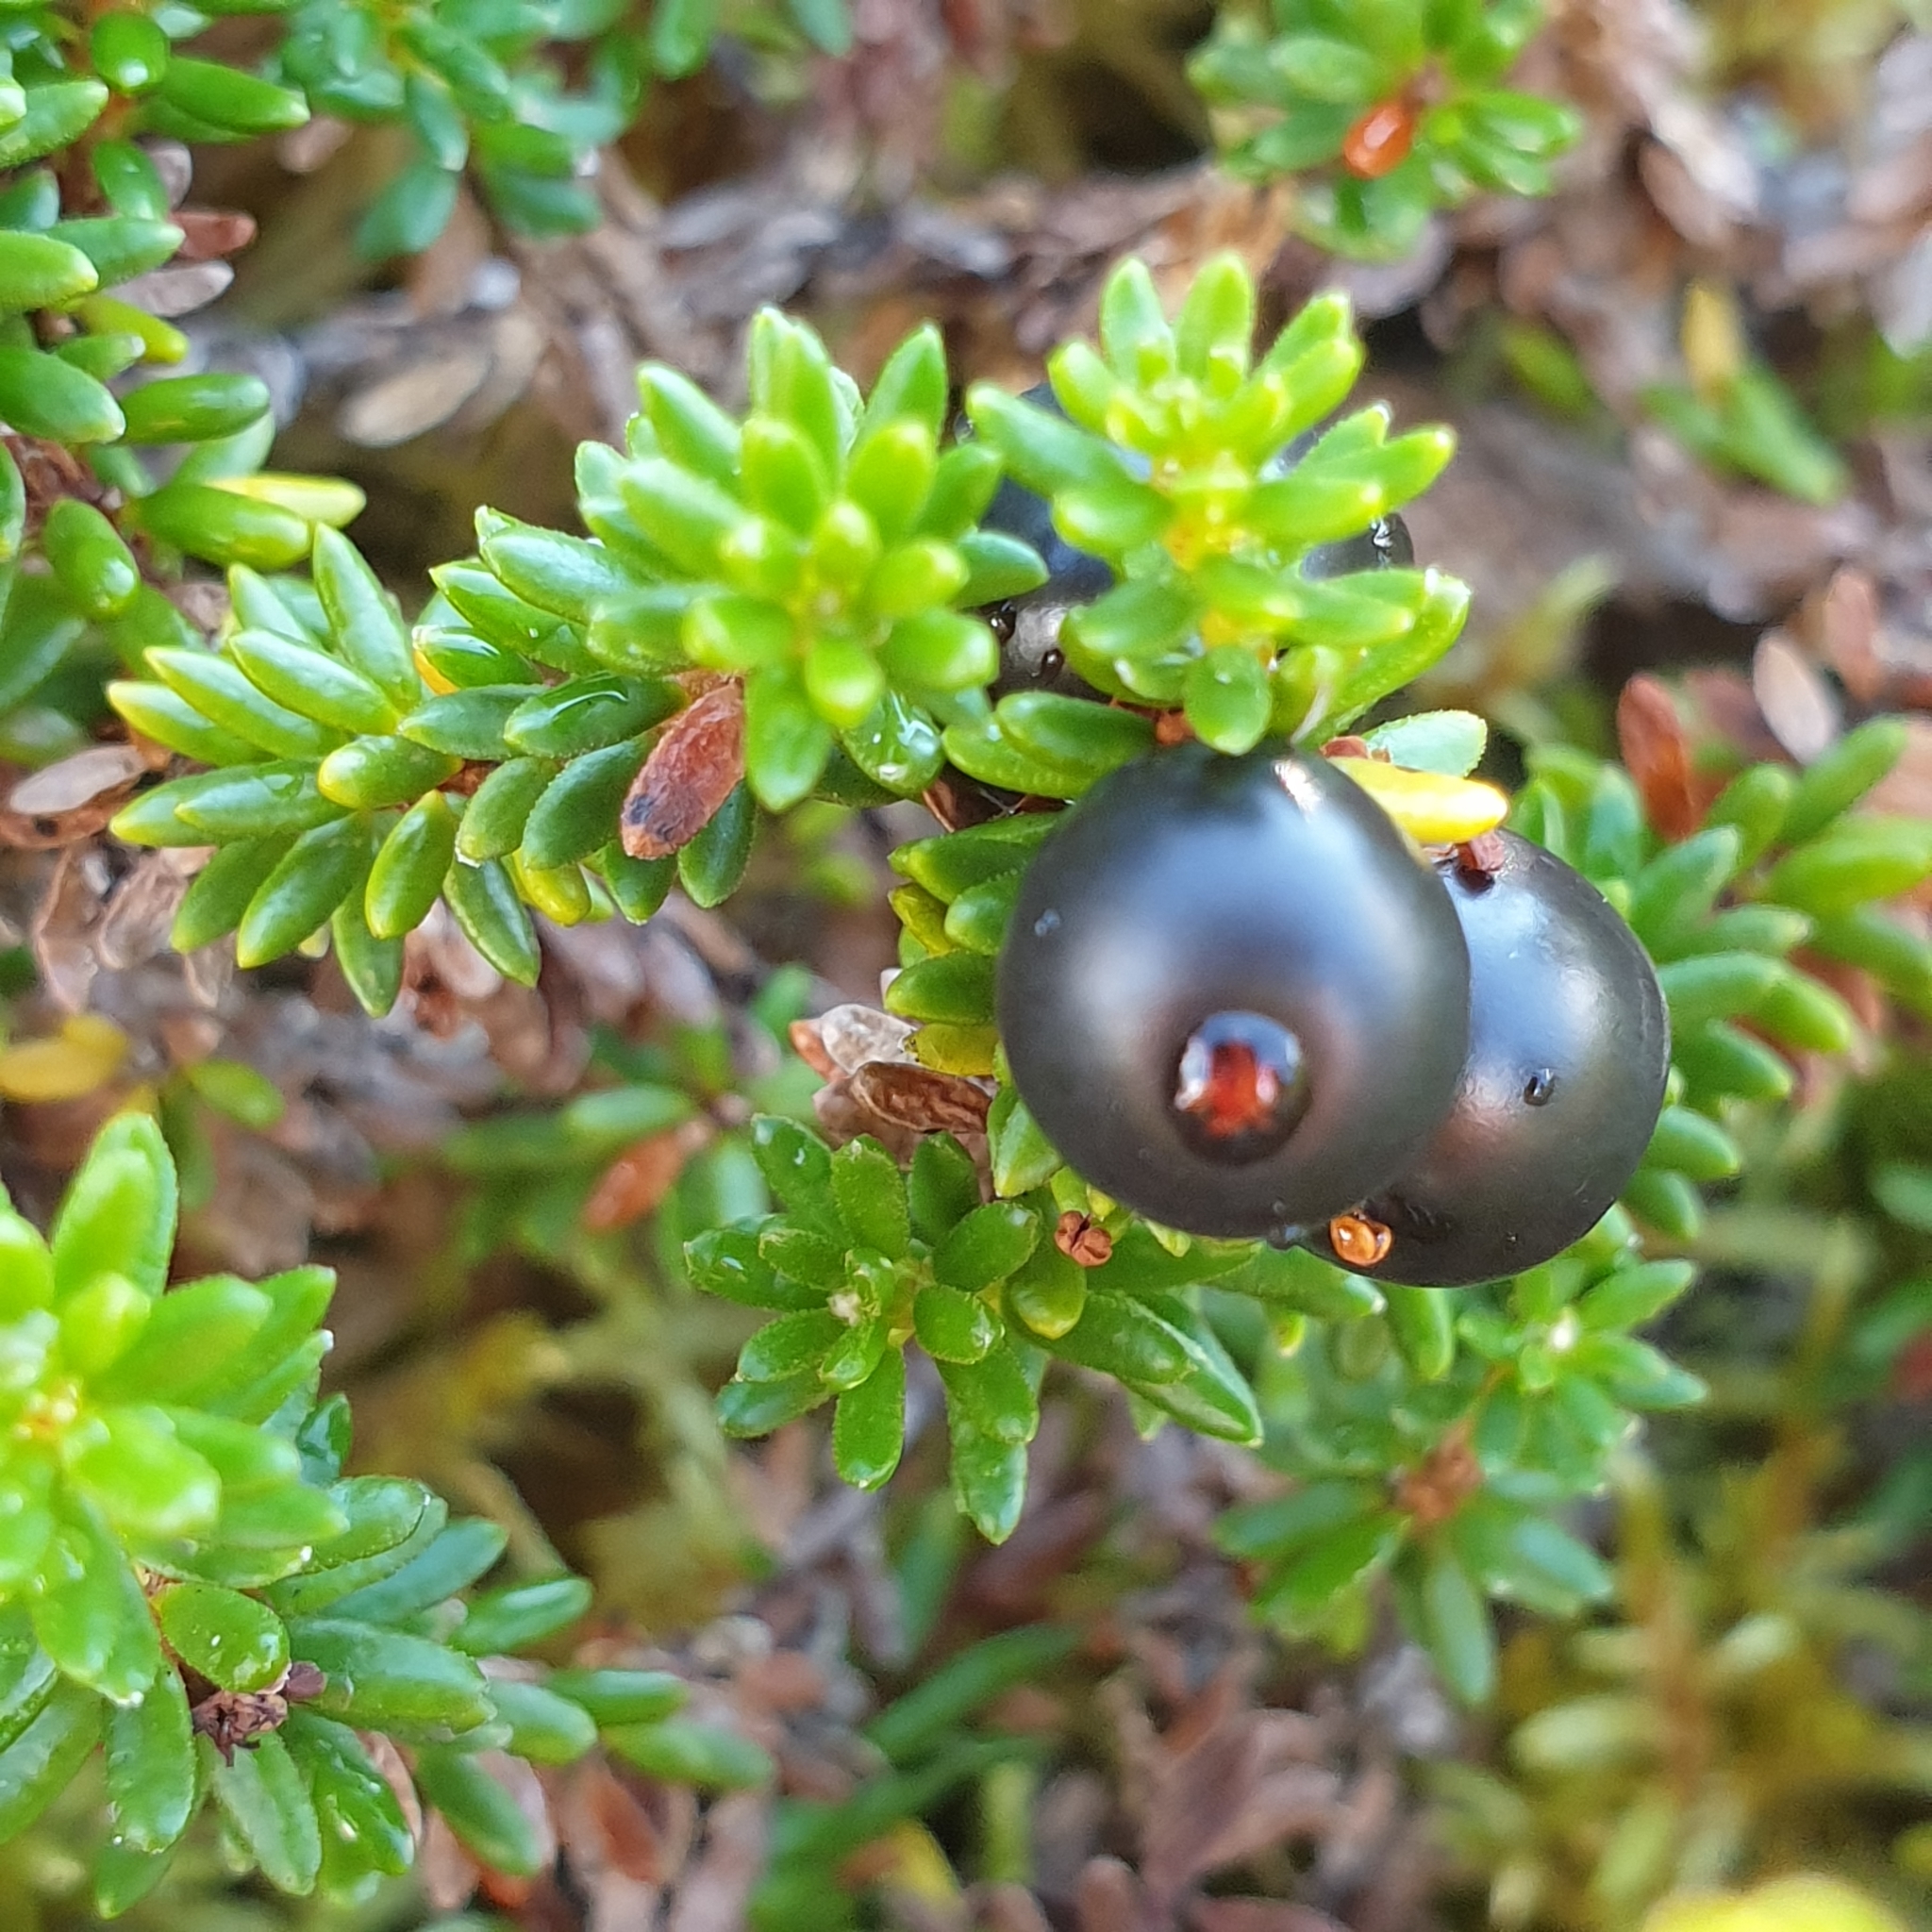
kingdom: Plantae
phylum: Tracheophyta
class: Magnoliopsida
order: Ericales
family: Ericaceae
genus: Empetrum
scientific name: Empetrum nigrum
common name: Black crowberry
